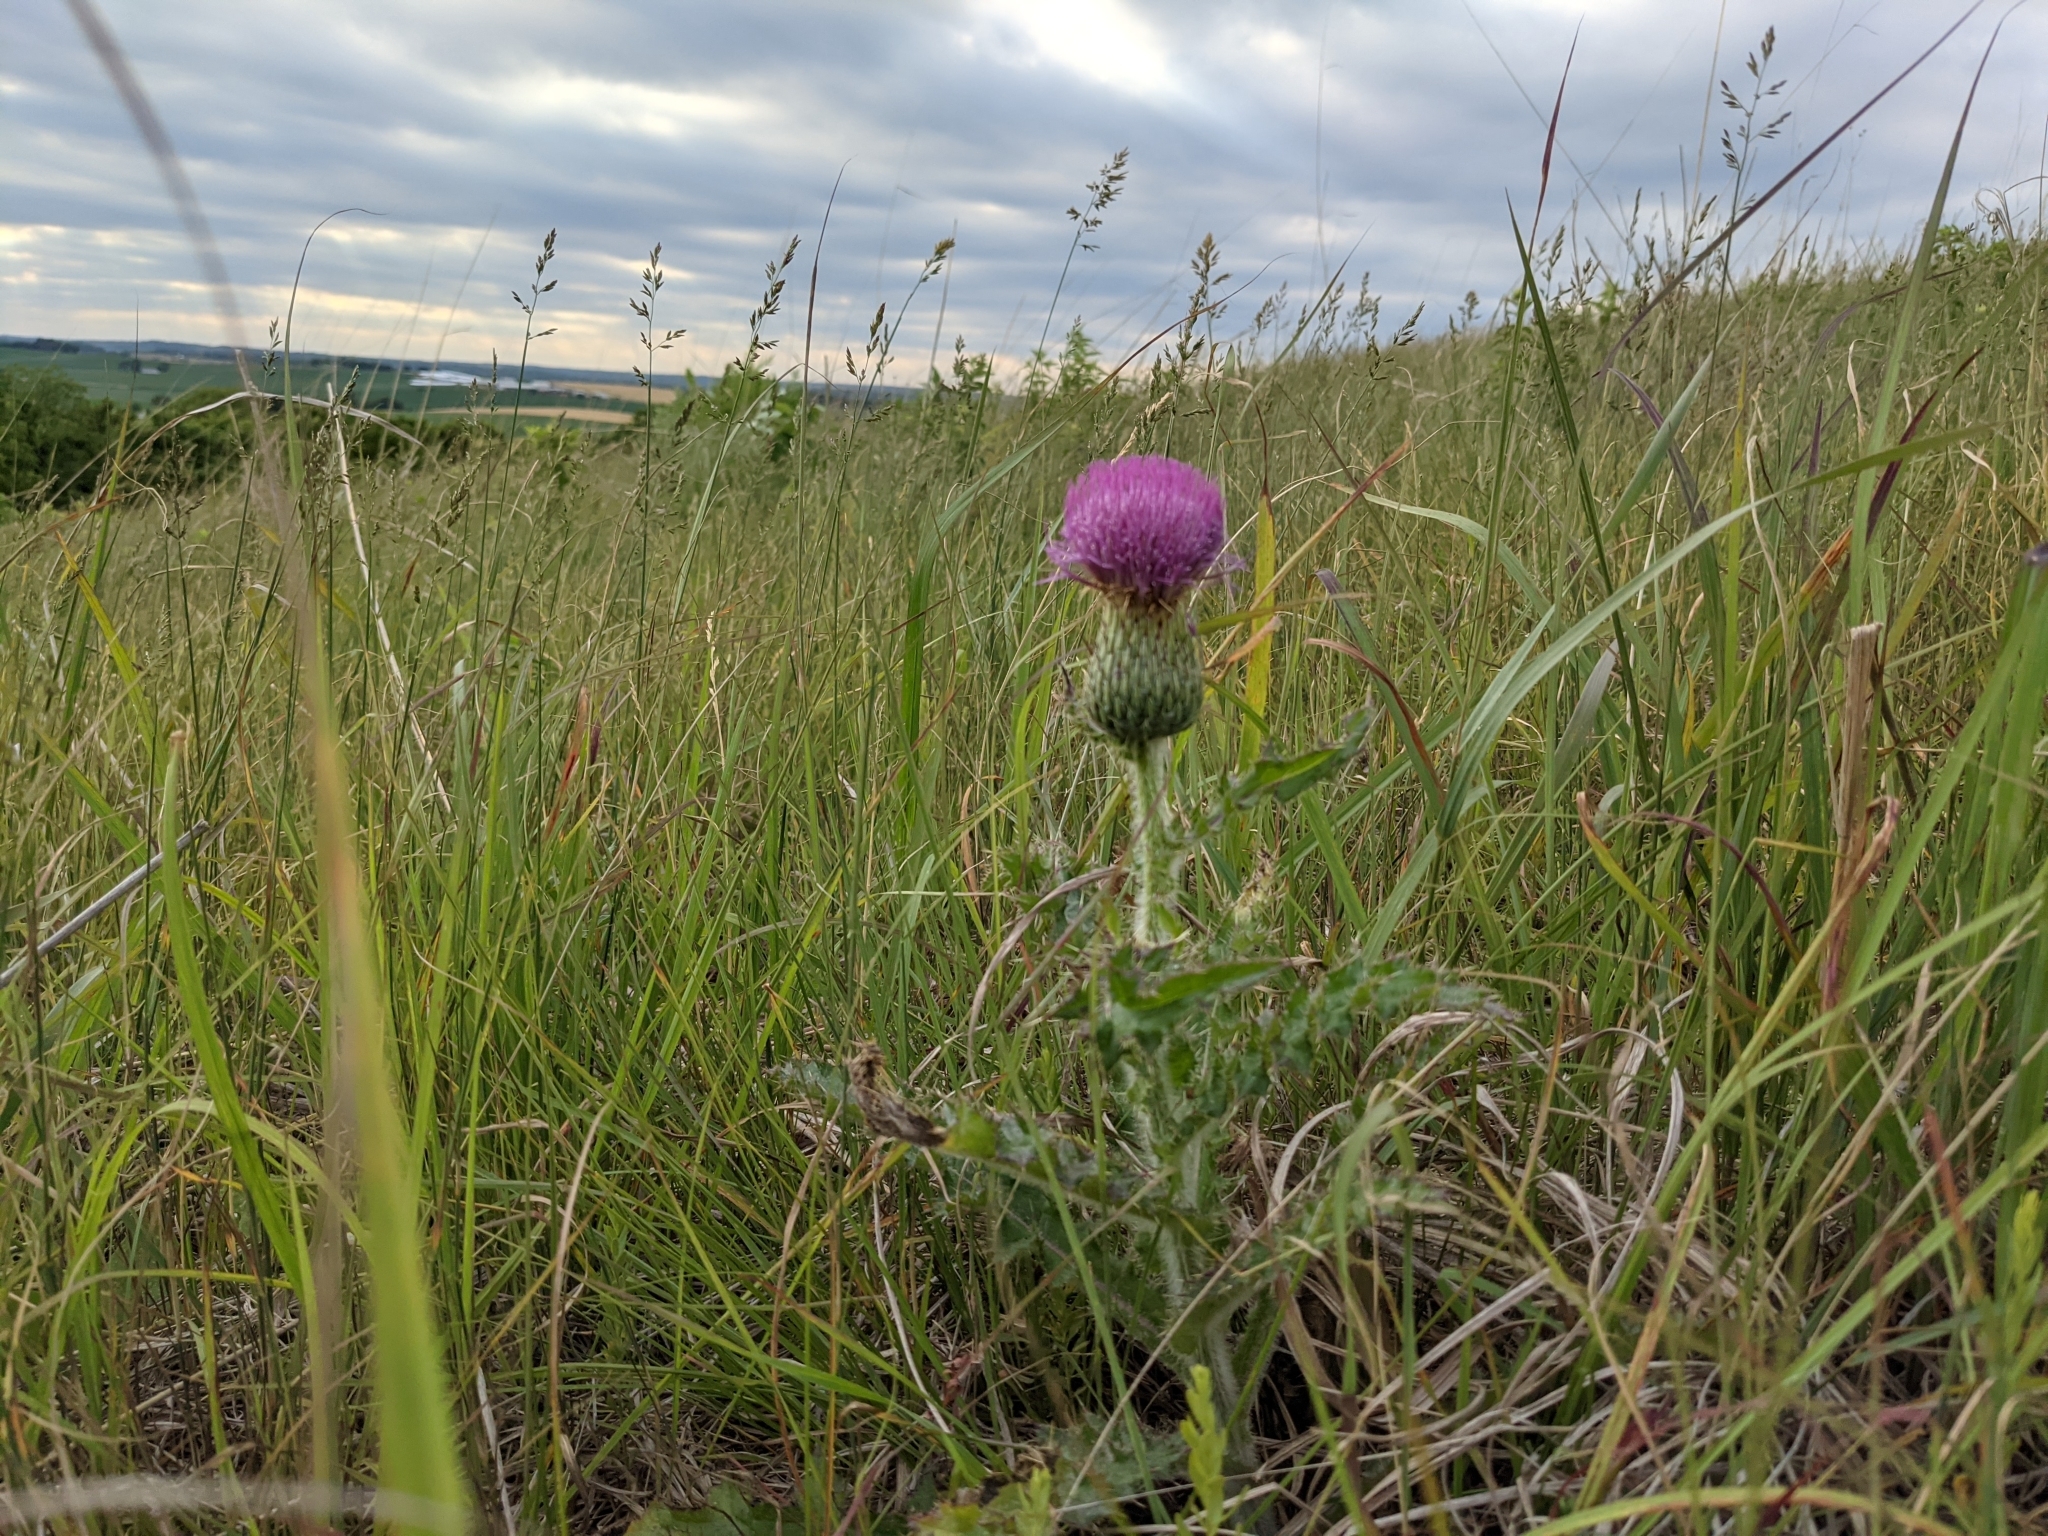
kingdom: Plantae
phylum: Tracheophyta
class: Magnoliopsida
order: Asterales
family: Asteraceae
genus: Cirsium
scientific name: Cirsium pumilum
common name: Pasture thistle
